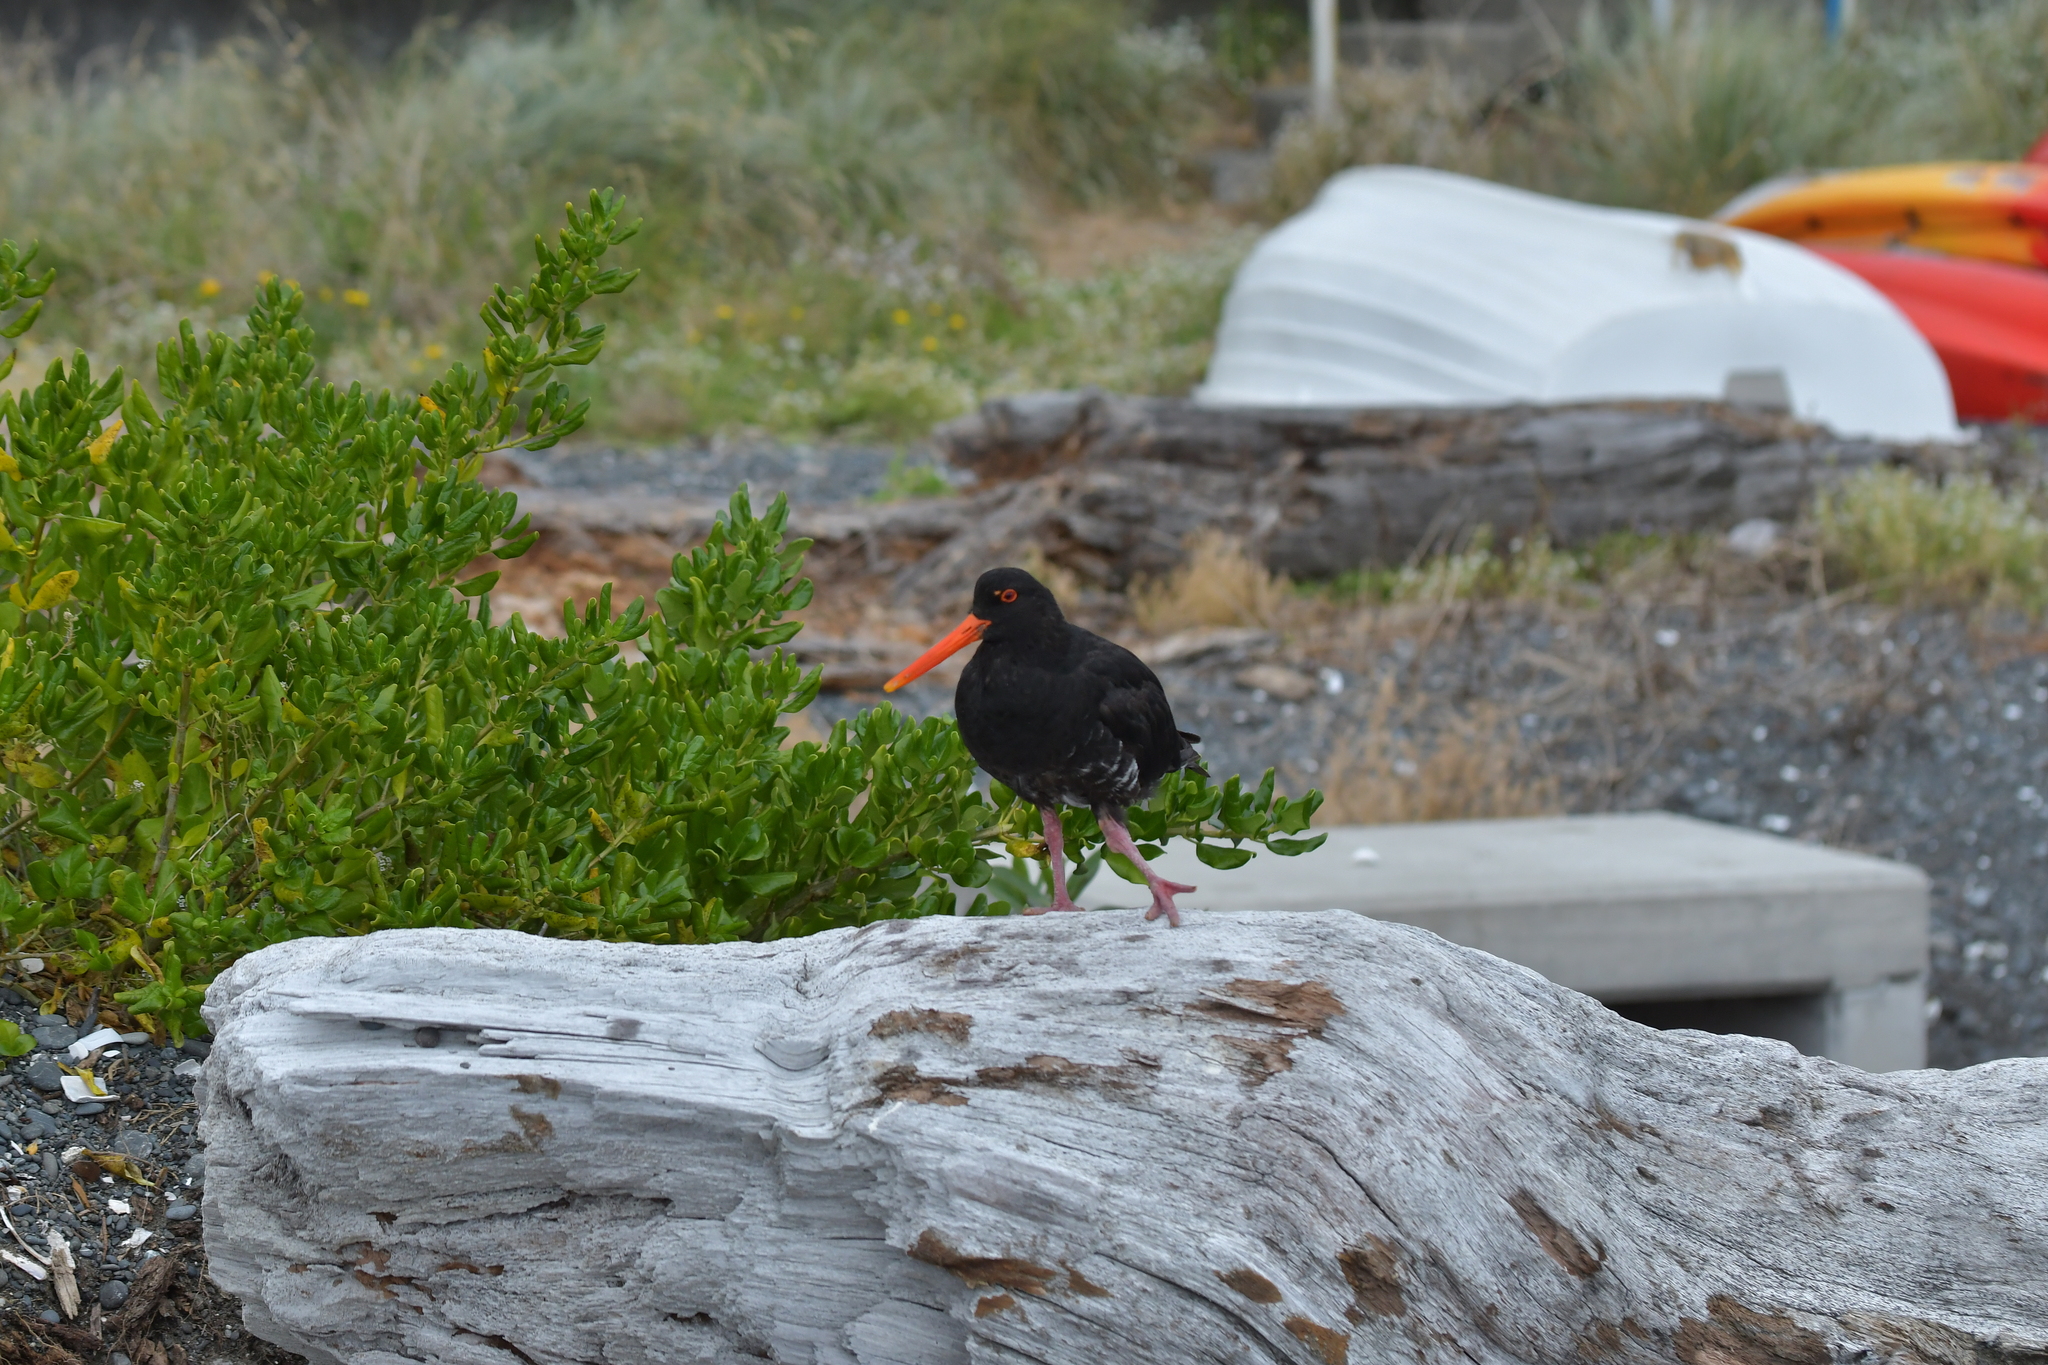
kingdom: Animalia
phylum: Chordata
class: Aves
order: Charadriiformes
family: Haematopodidae
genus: Haematopus
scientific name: Haematopus unicolor
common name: Variable oystercatcher
